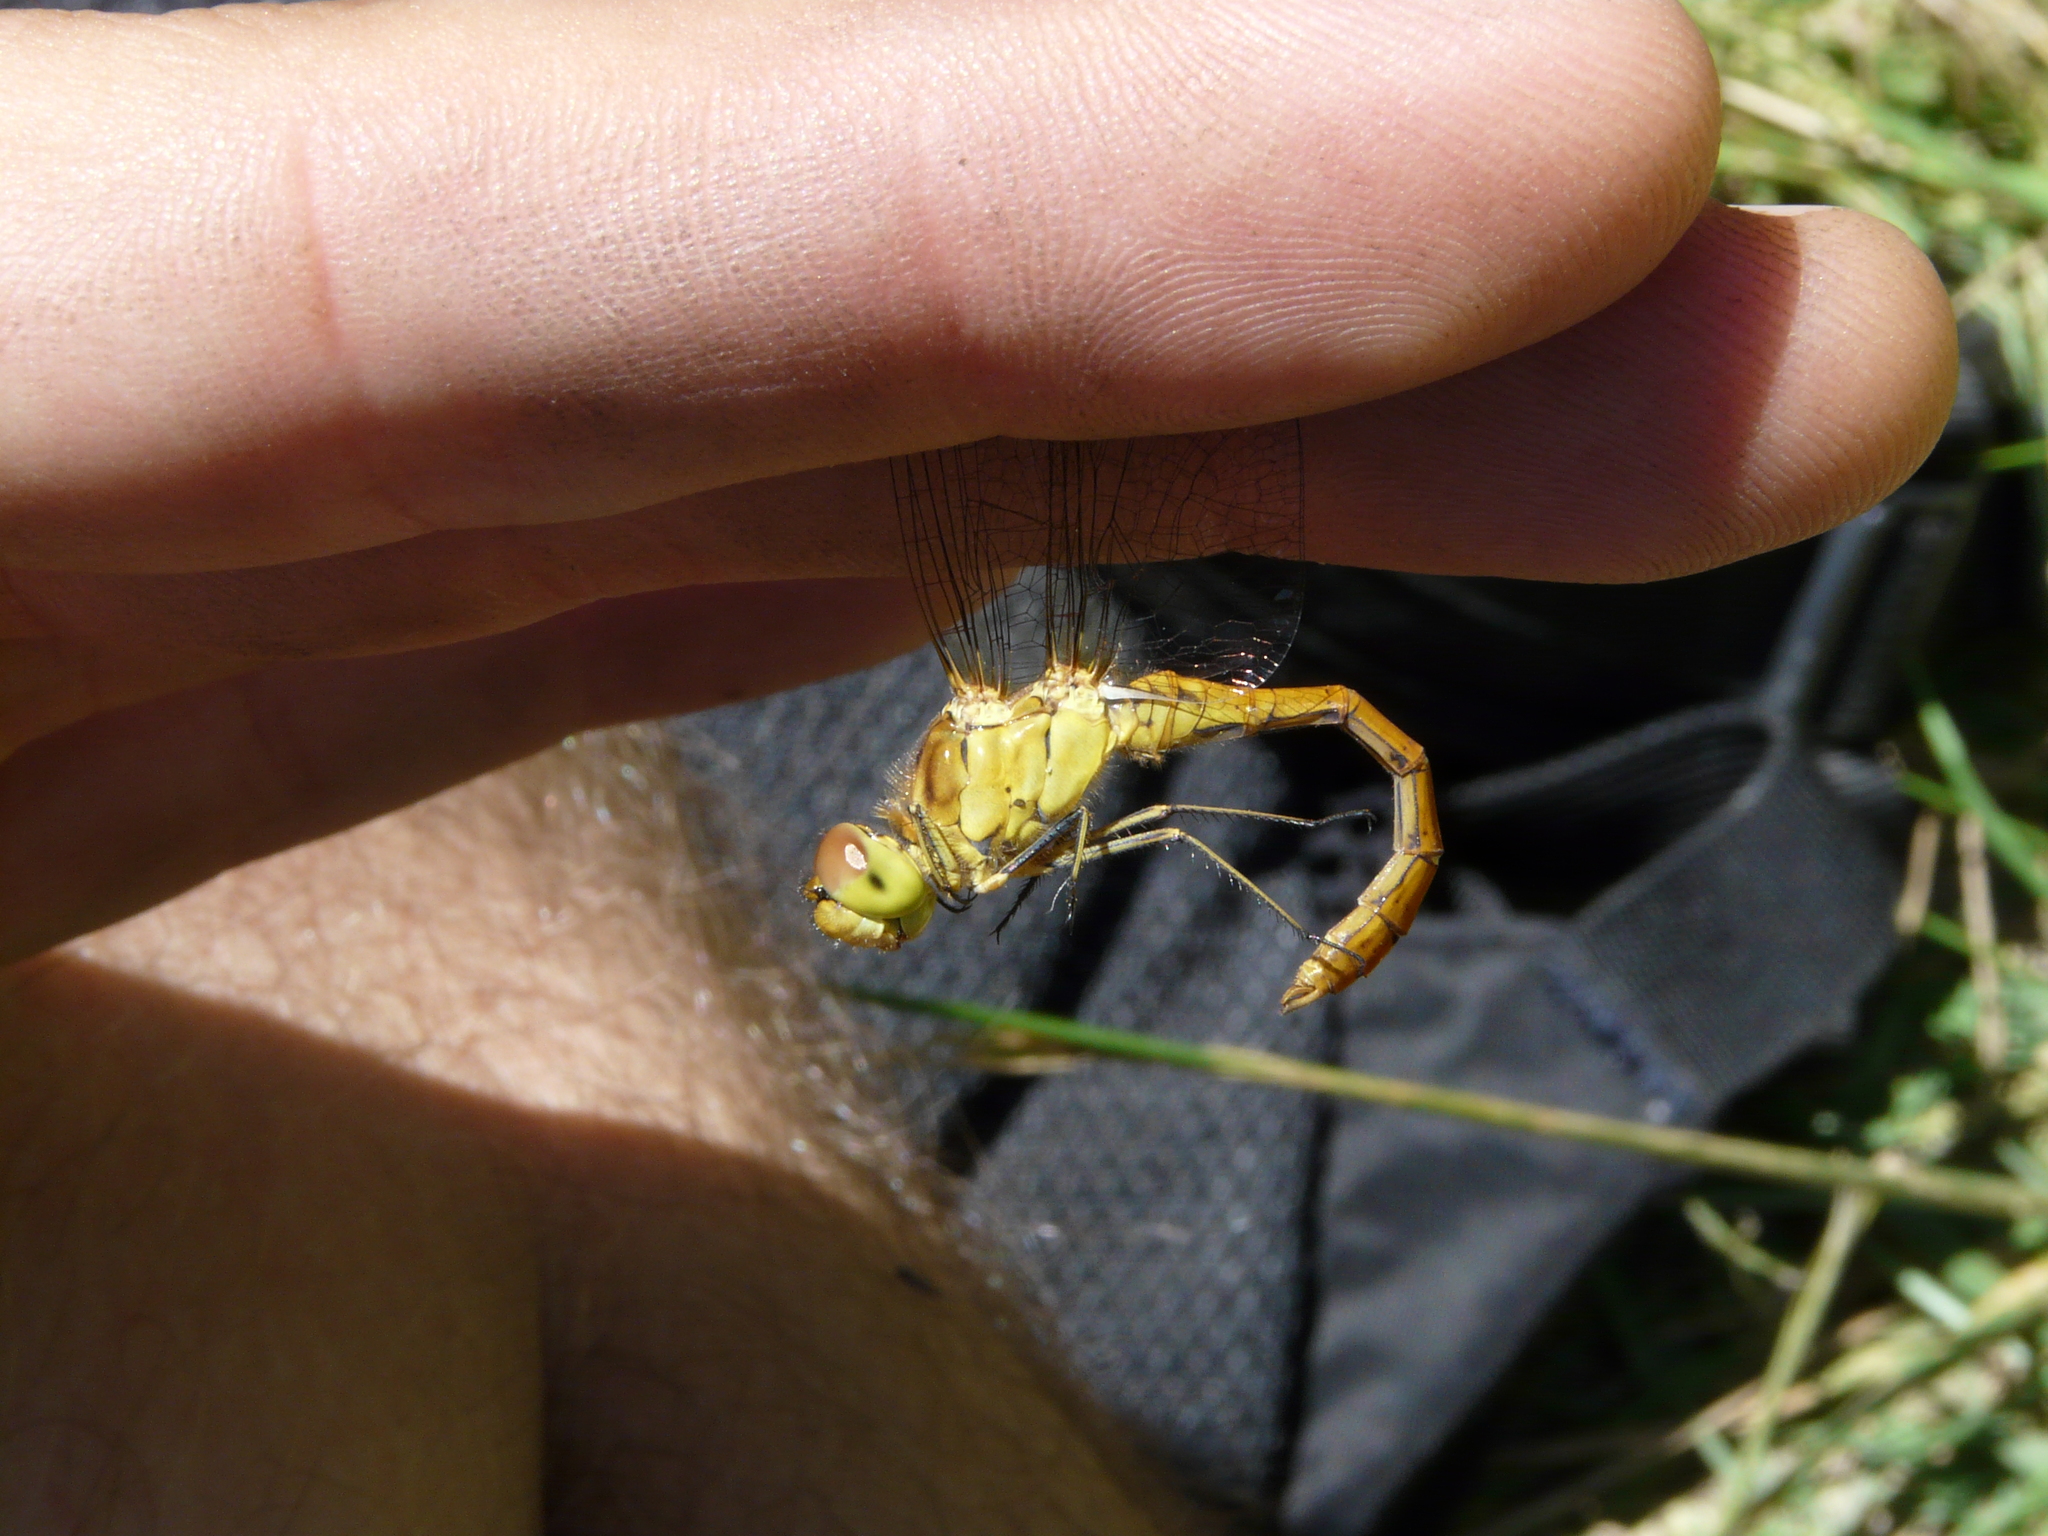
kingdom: Animalia
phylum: Arthropoda
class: Insecta
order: Odonata
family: Libellulidae
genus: Sympetrum
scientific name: Sympetrum meridionale
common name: Southern darter
